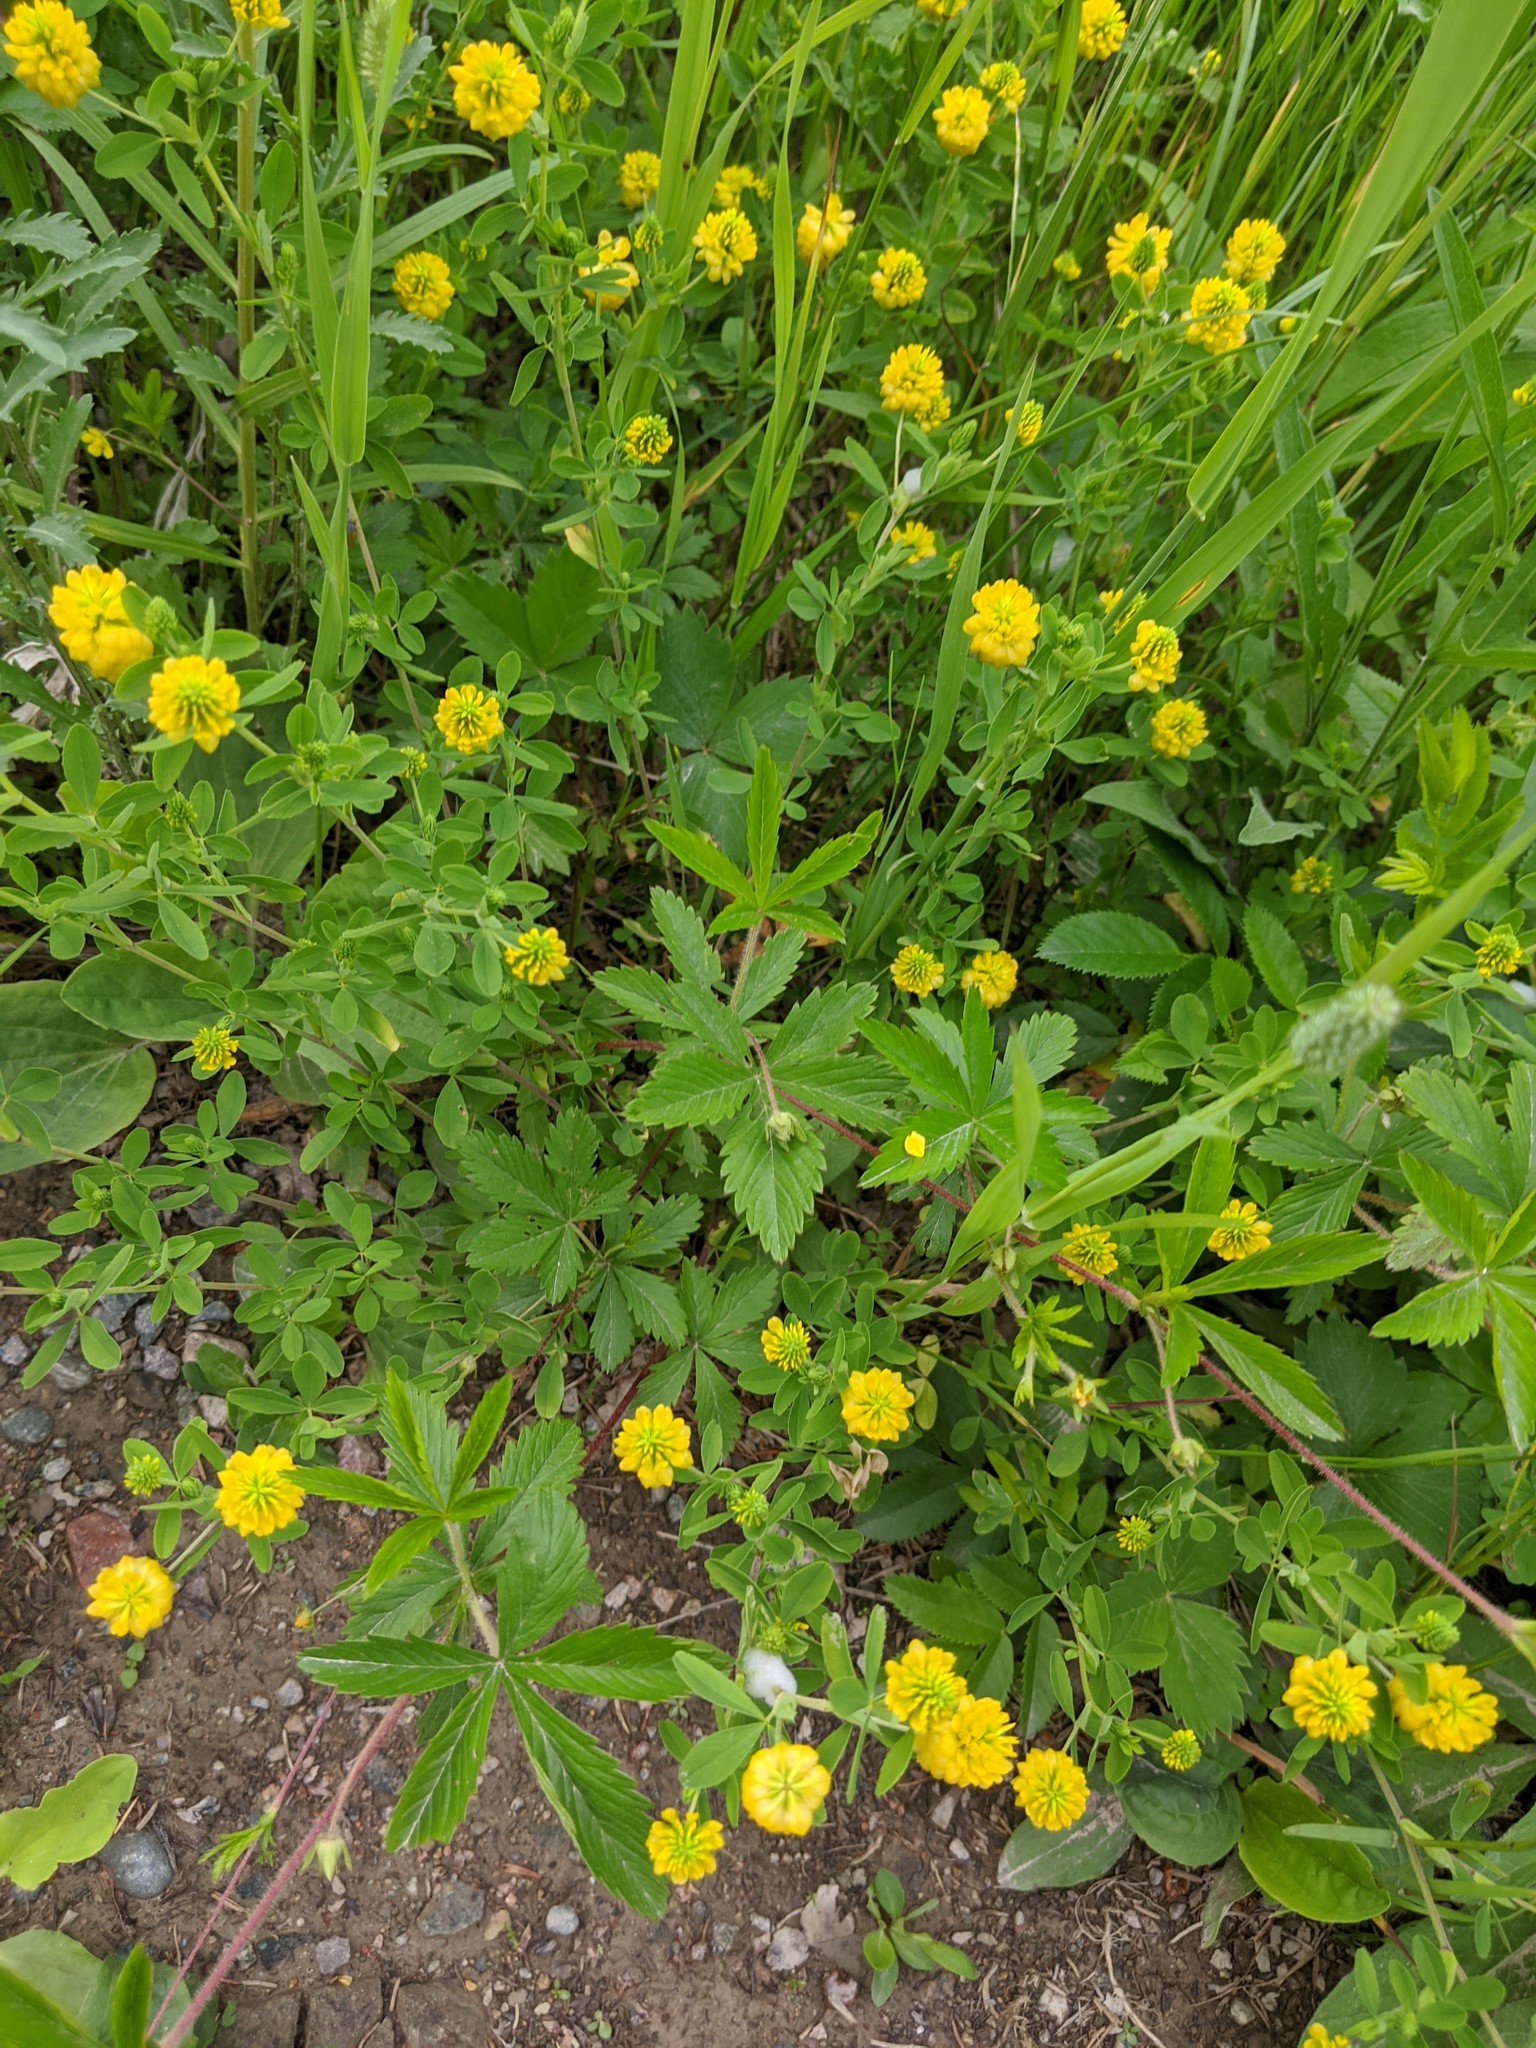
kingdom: Plantae
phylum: Tracheophyta
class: Magnoliopsida
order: Fabales
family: Fabaceae
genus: Trifolium
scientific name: Trifolium aureum
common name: Golden clover
